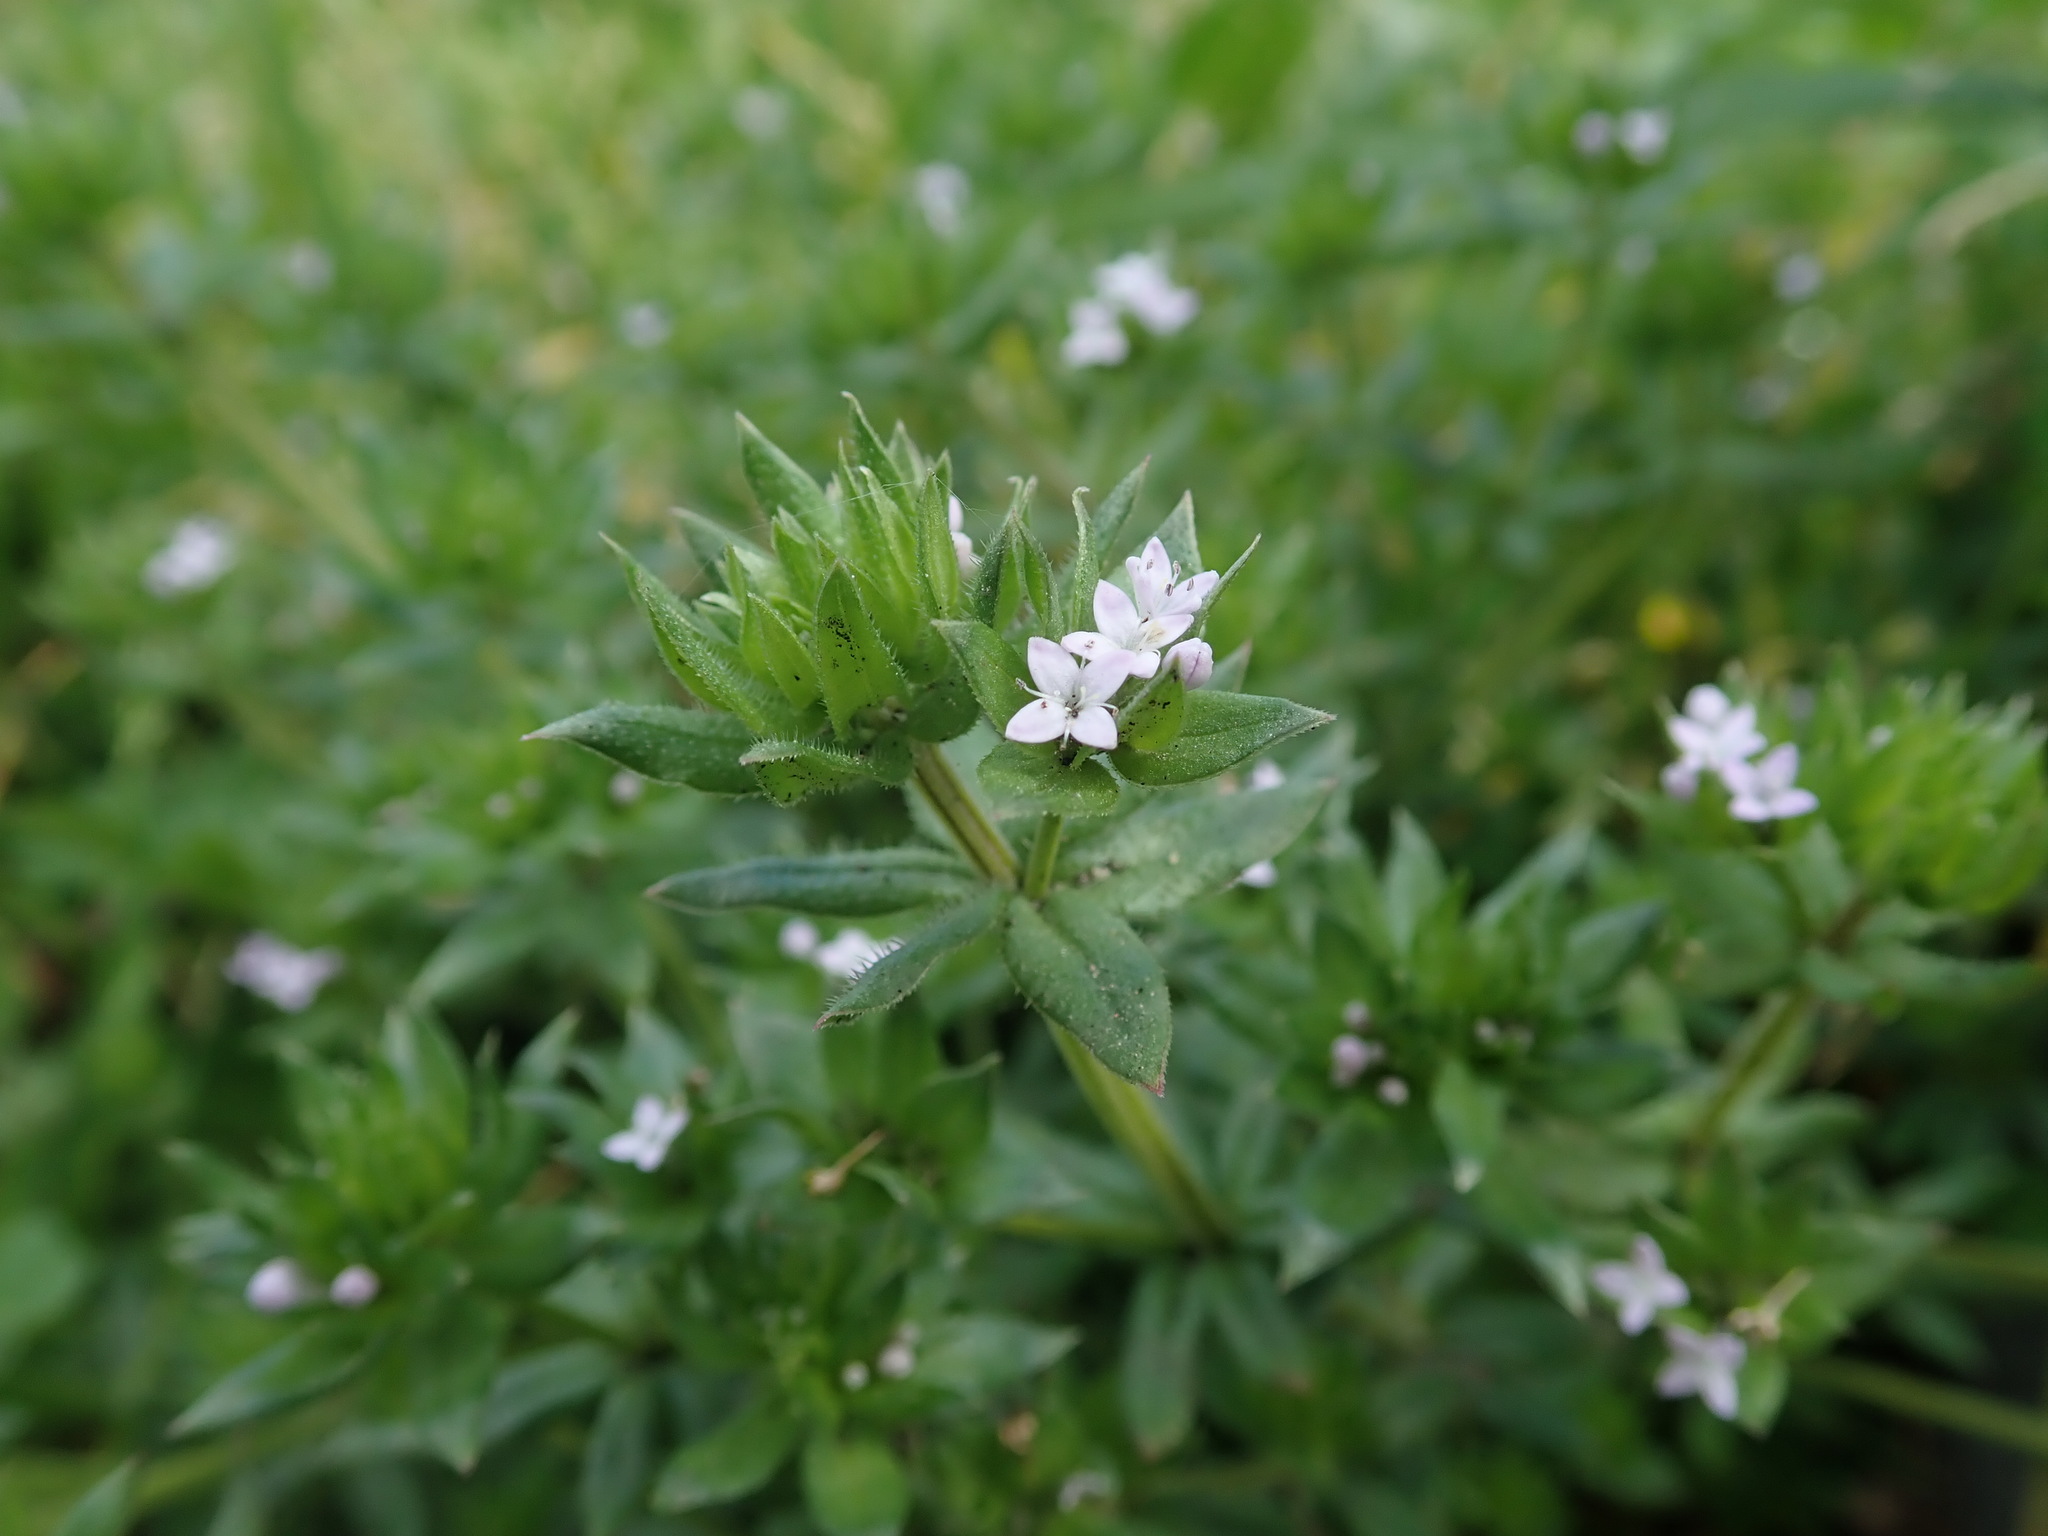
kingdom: Plantae
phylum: Tracheophyta
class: Magnoliopsida
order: Gentianales
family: Rubiaceae
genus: Sherardia
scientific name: Sherardia arvensis
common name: Field madder
